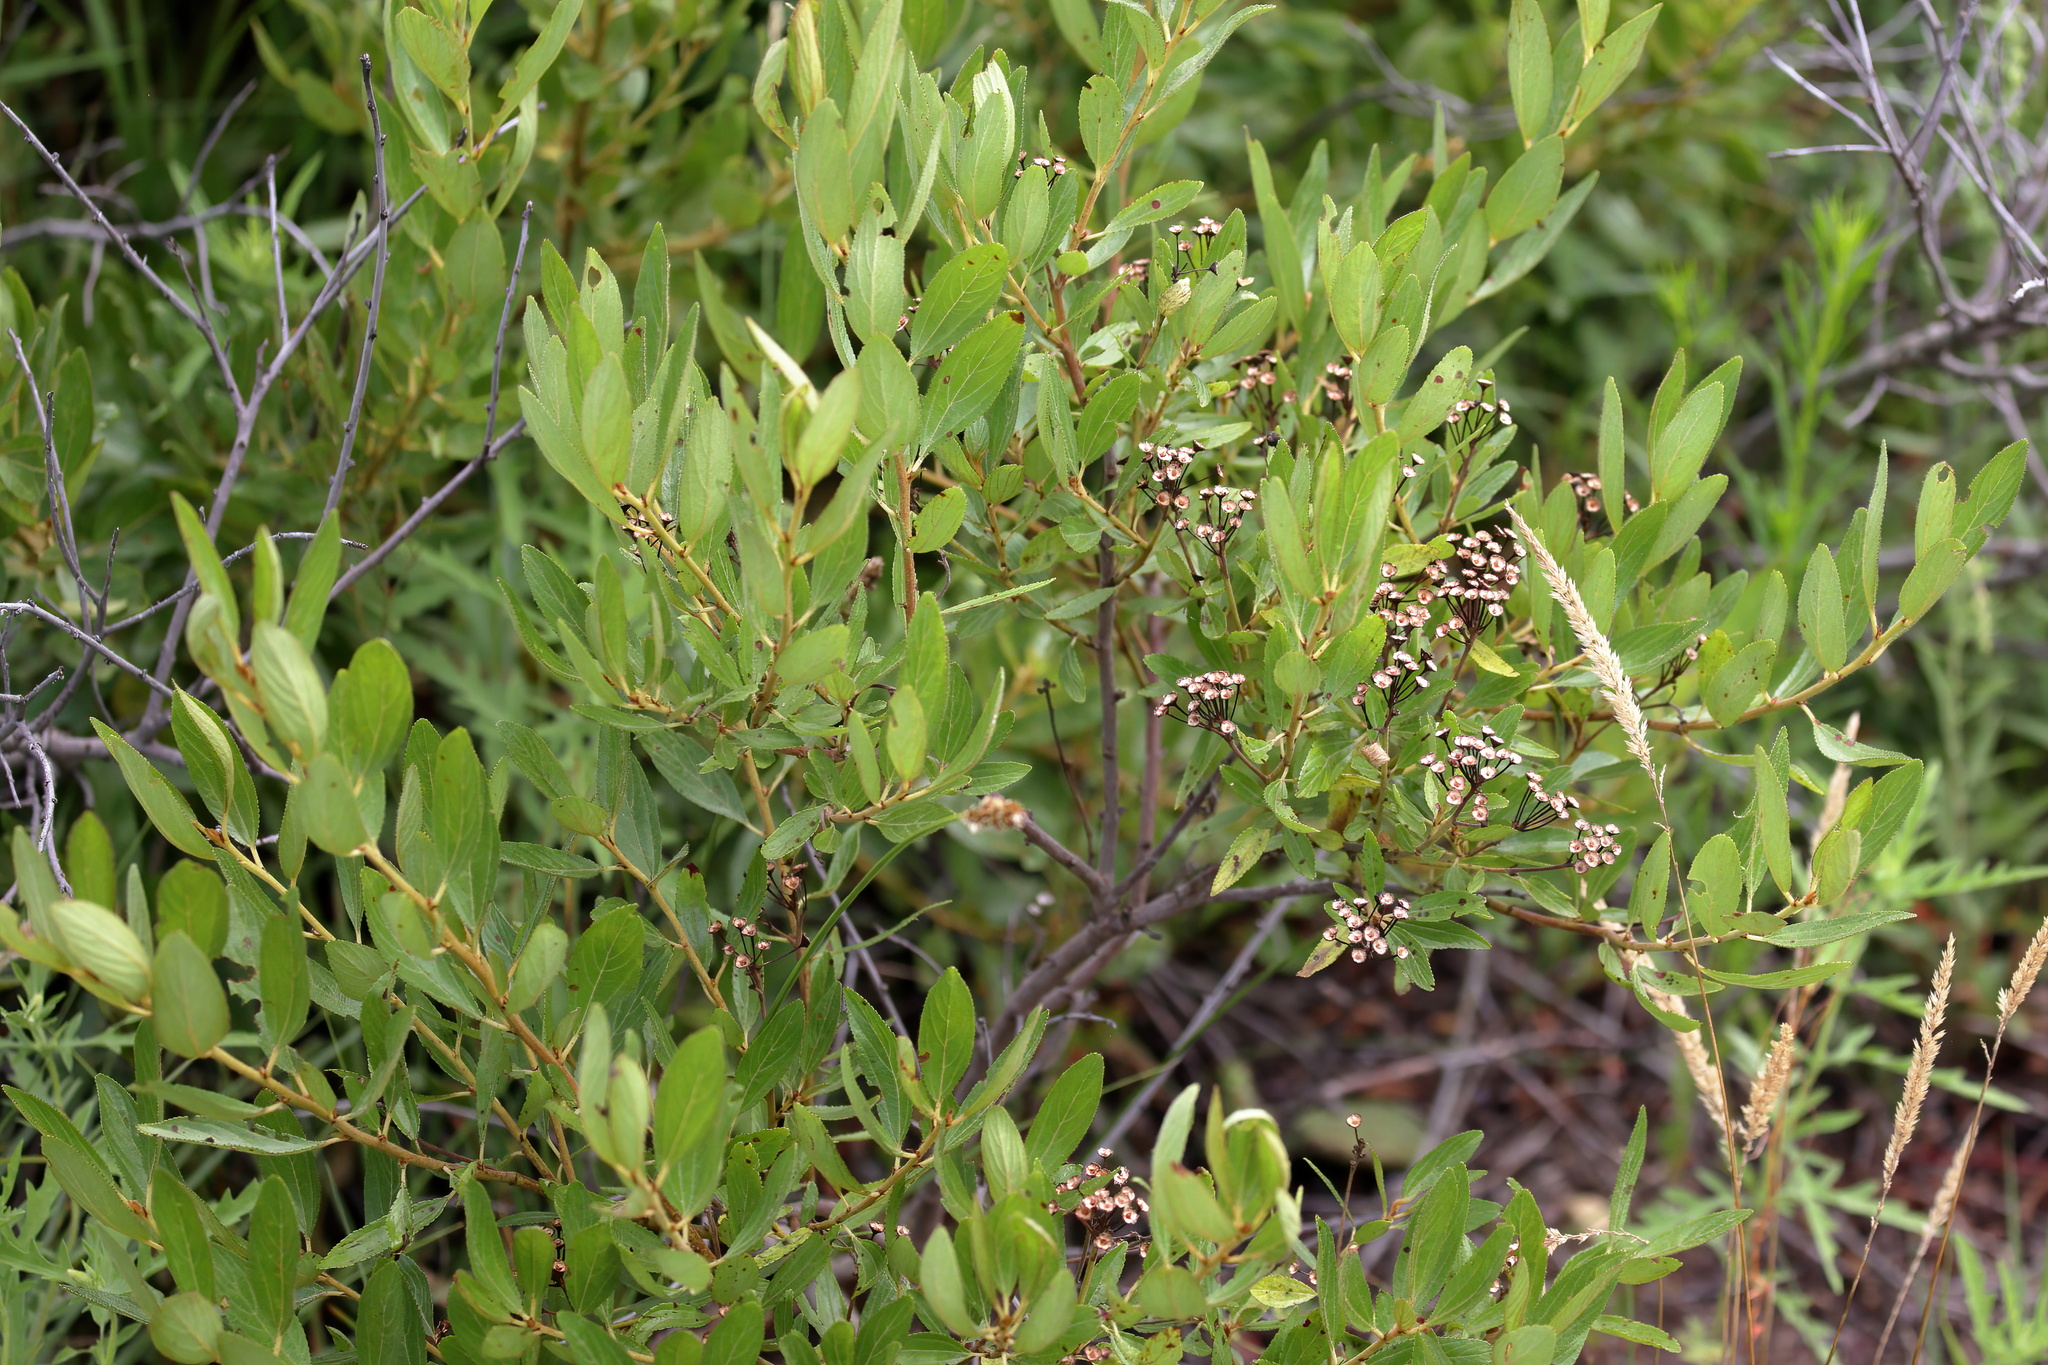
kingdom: Plantae
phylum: Tracheophyta
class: Magnoliopsida
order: Rosales
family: Rhamnaceae
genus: Ceanothus
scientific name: Ceanothus herbaceus
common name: Inland ceanothus
